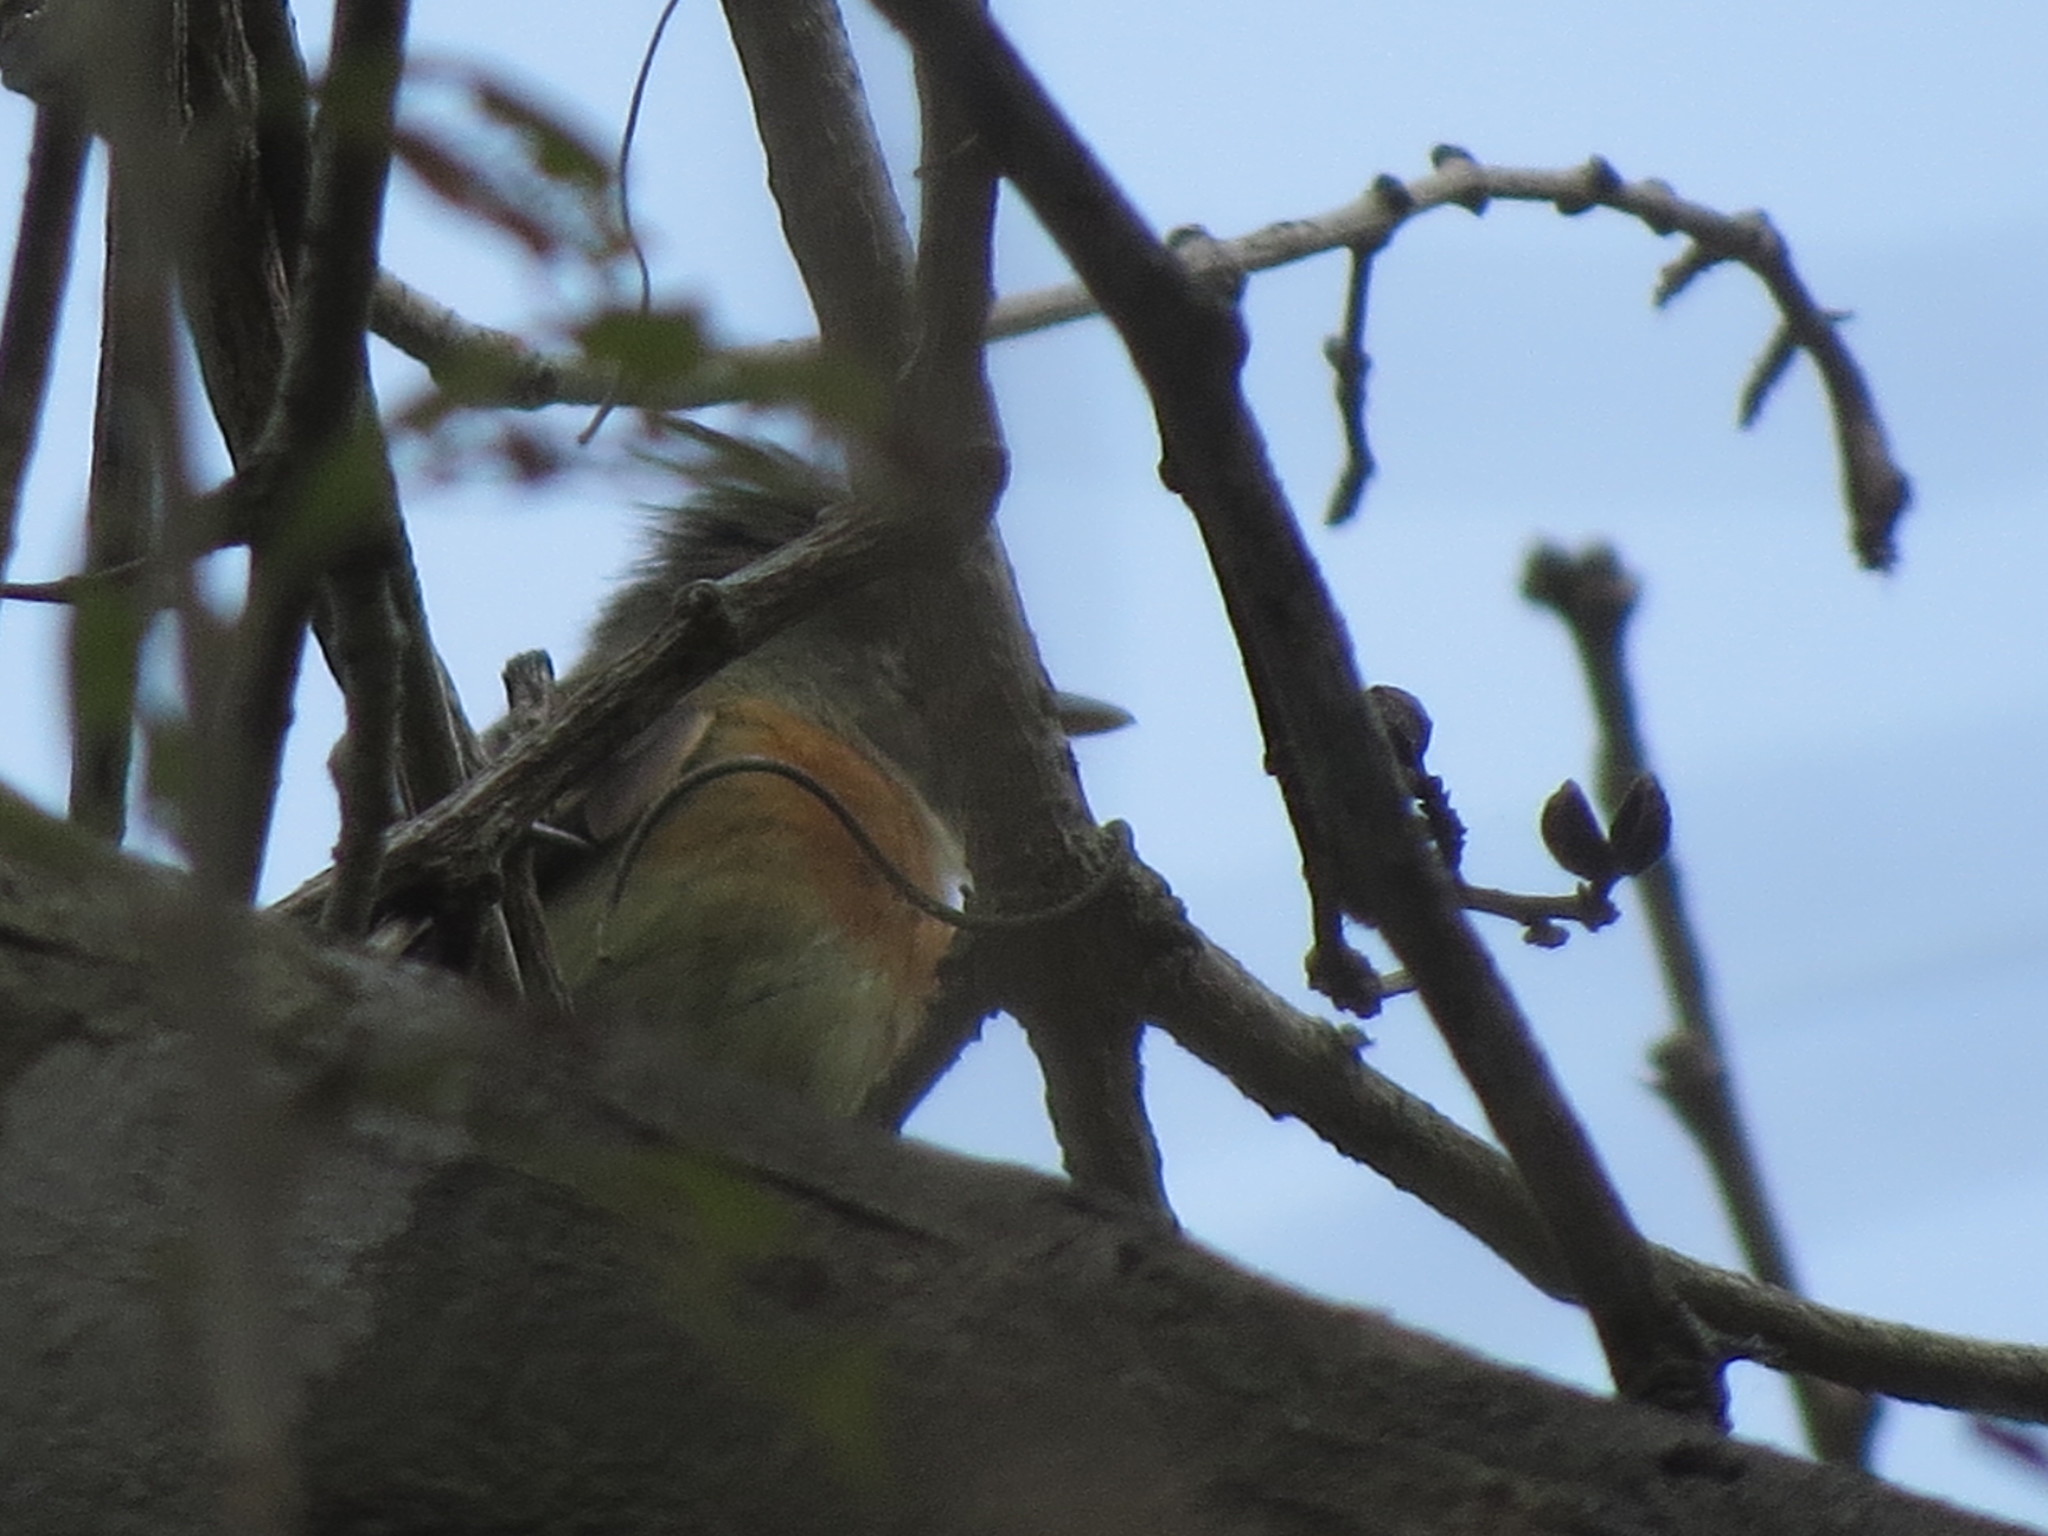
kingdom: Animalia
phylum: Chordata
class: Aves
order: Passeriformes
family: Tyrannidae
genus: Xenotriccus
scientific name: Xenotriccus callizonus
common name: Belted flycatcher
